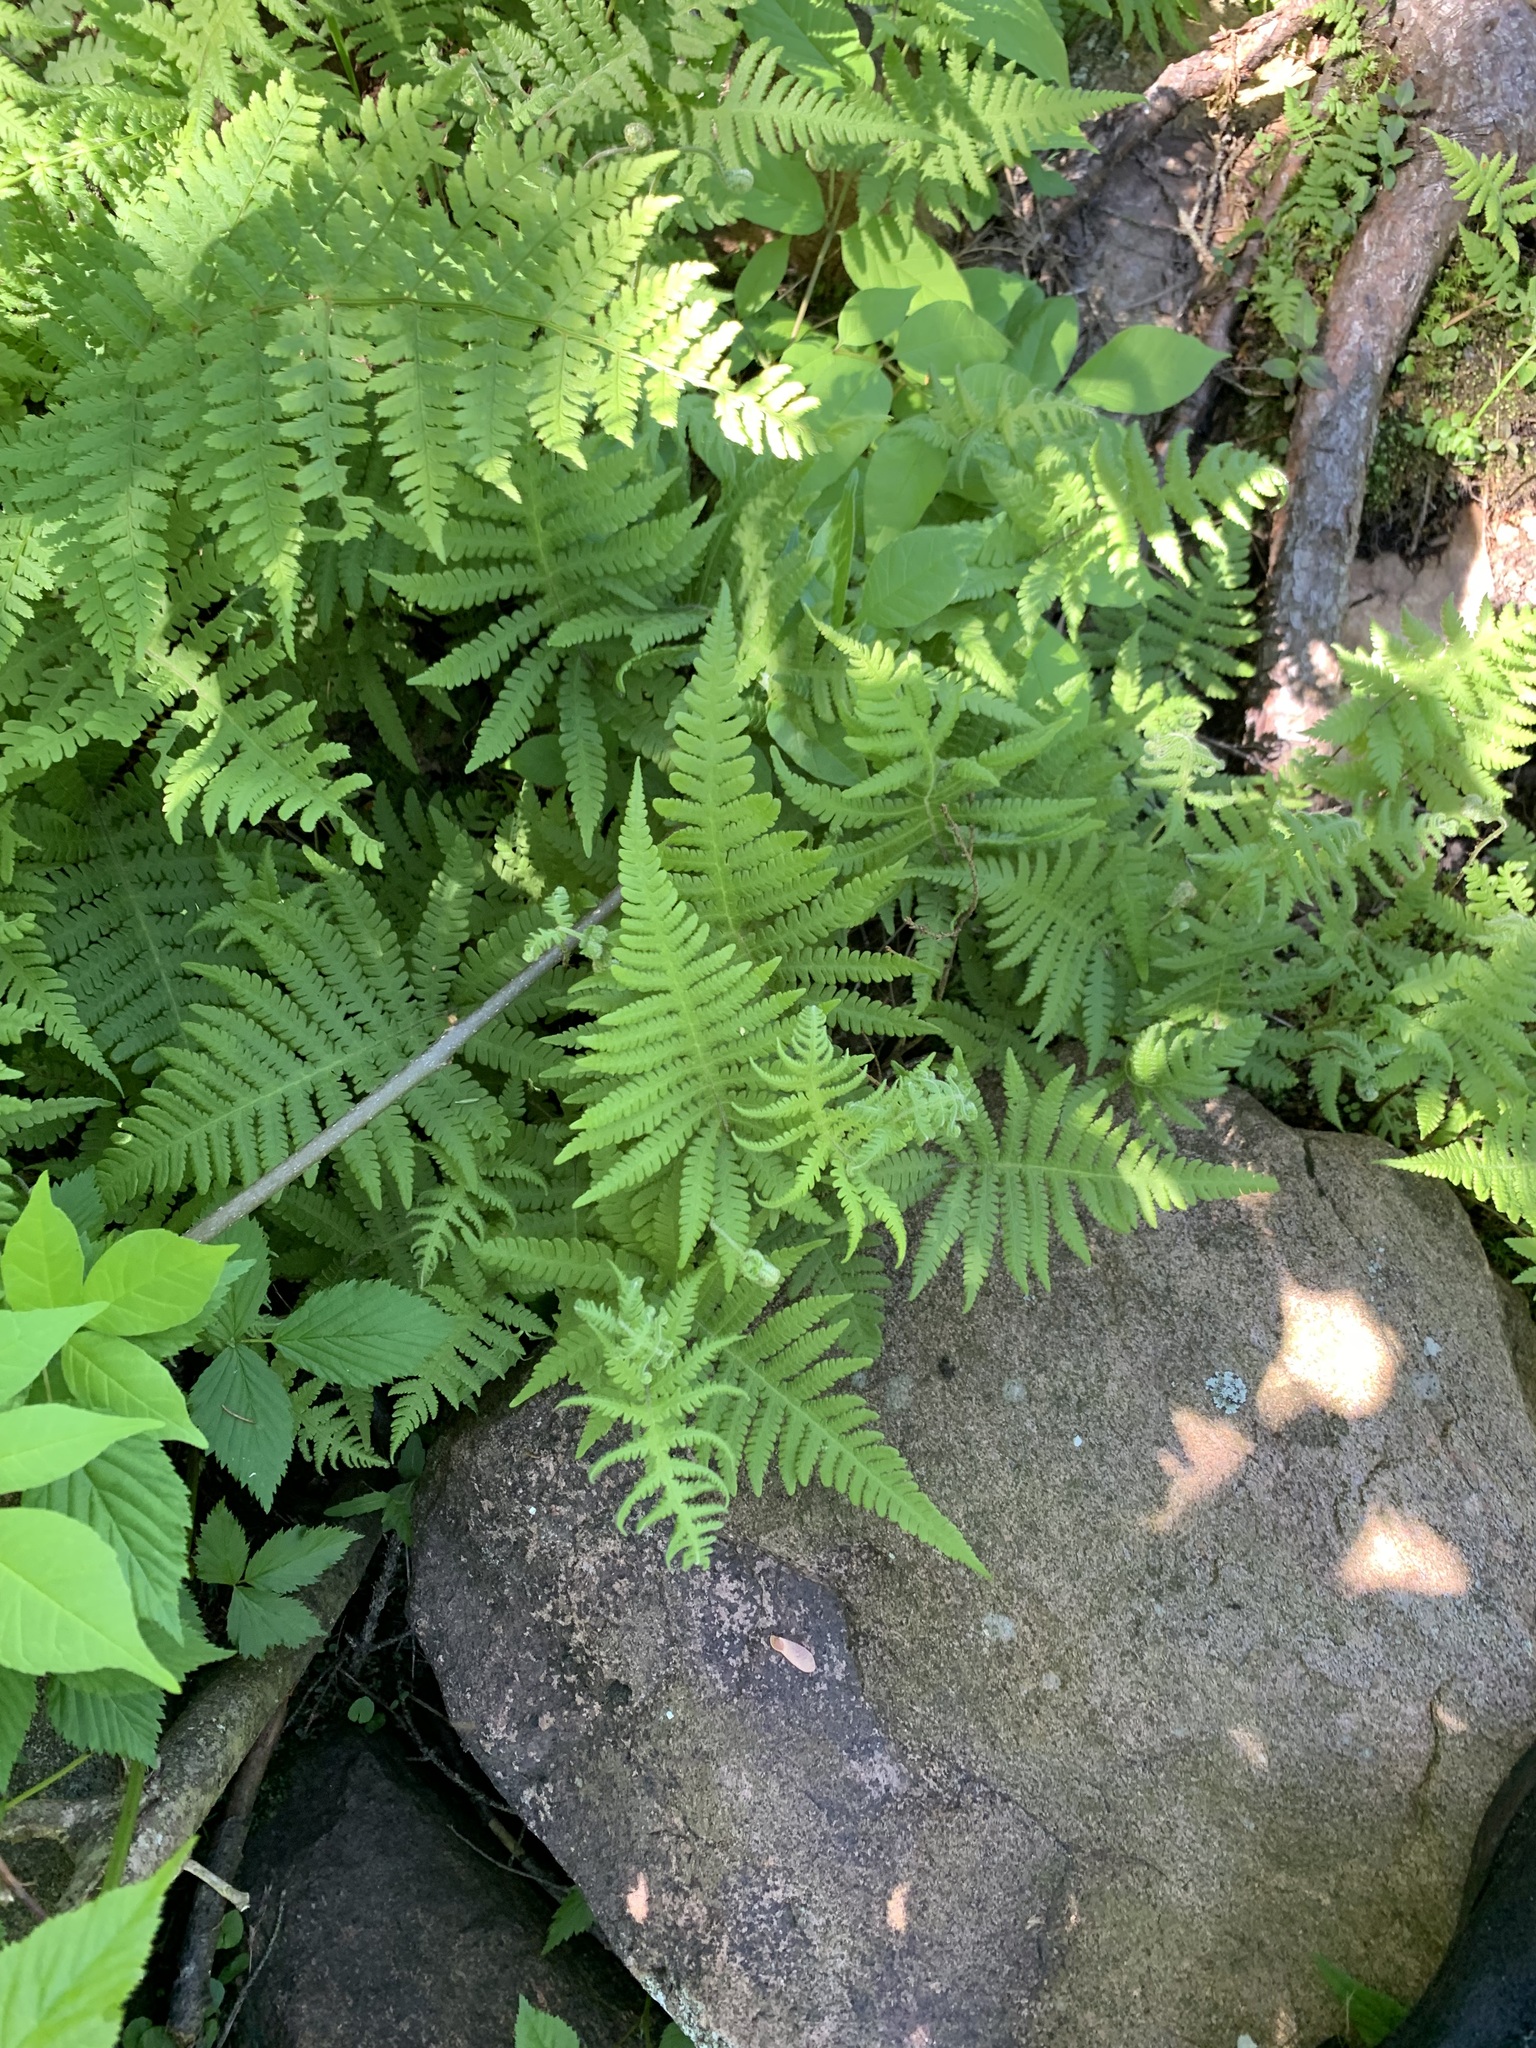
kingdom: Plantae
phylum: Tracheophyta
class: Polypodiopsida
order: Polypodiales
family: Thelypteridaceae
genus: Phegopteris
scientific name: Phegopteris connectilis
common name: Beech fern
